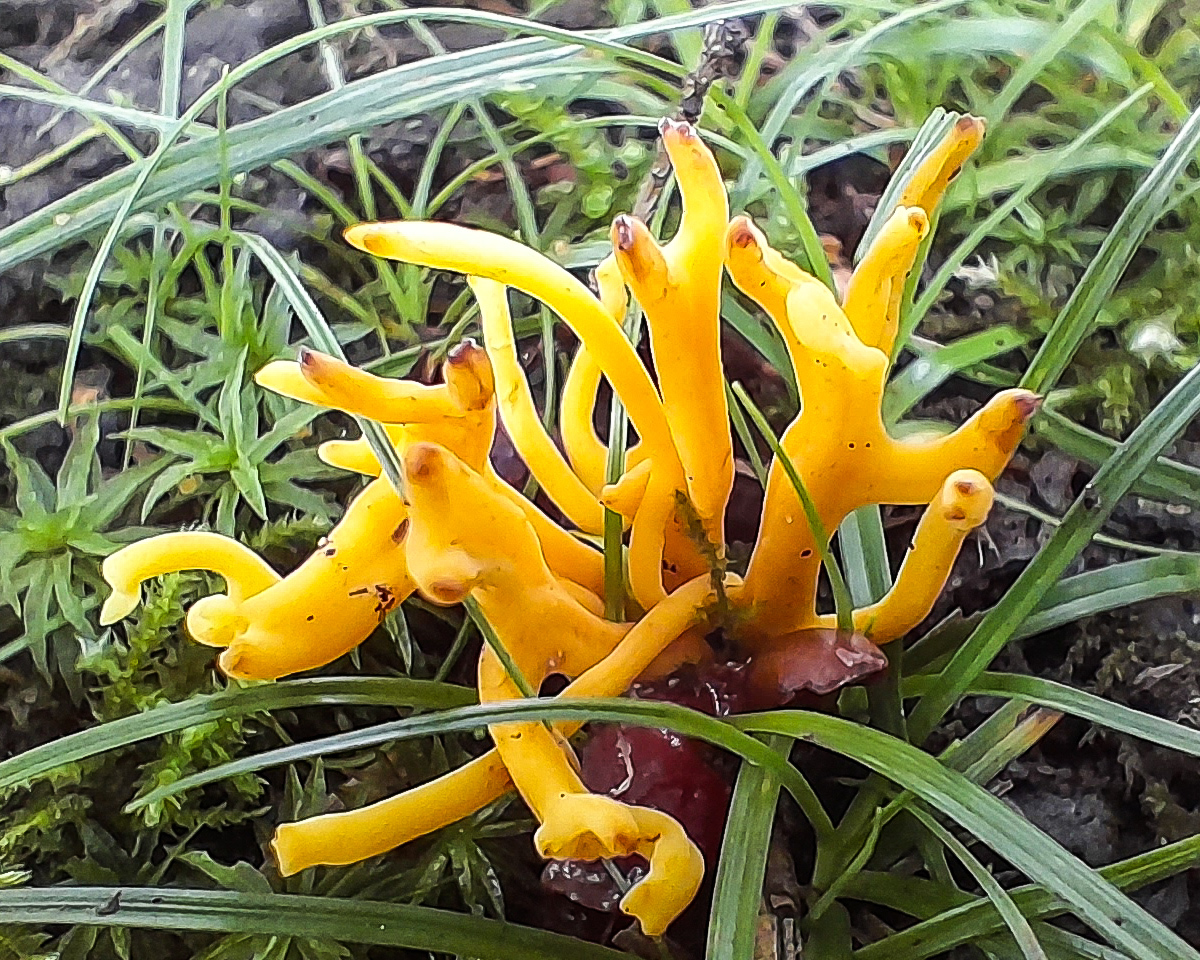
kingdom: Fungi
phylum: Basidiomycota
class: Agaricomycetes
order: Agaricales
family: Clavariaceae
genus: Clavulinopsis
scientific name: Clavulinopsis corniculata
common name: Meadow coral
